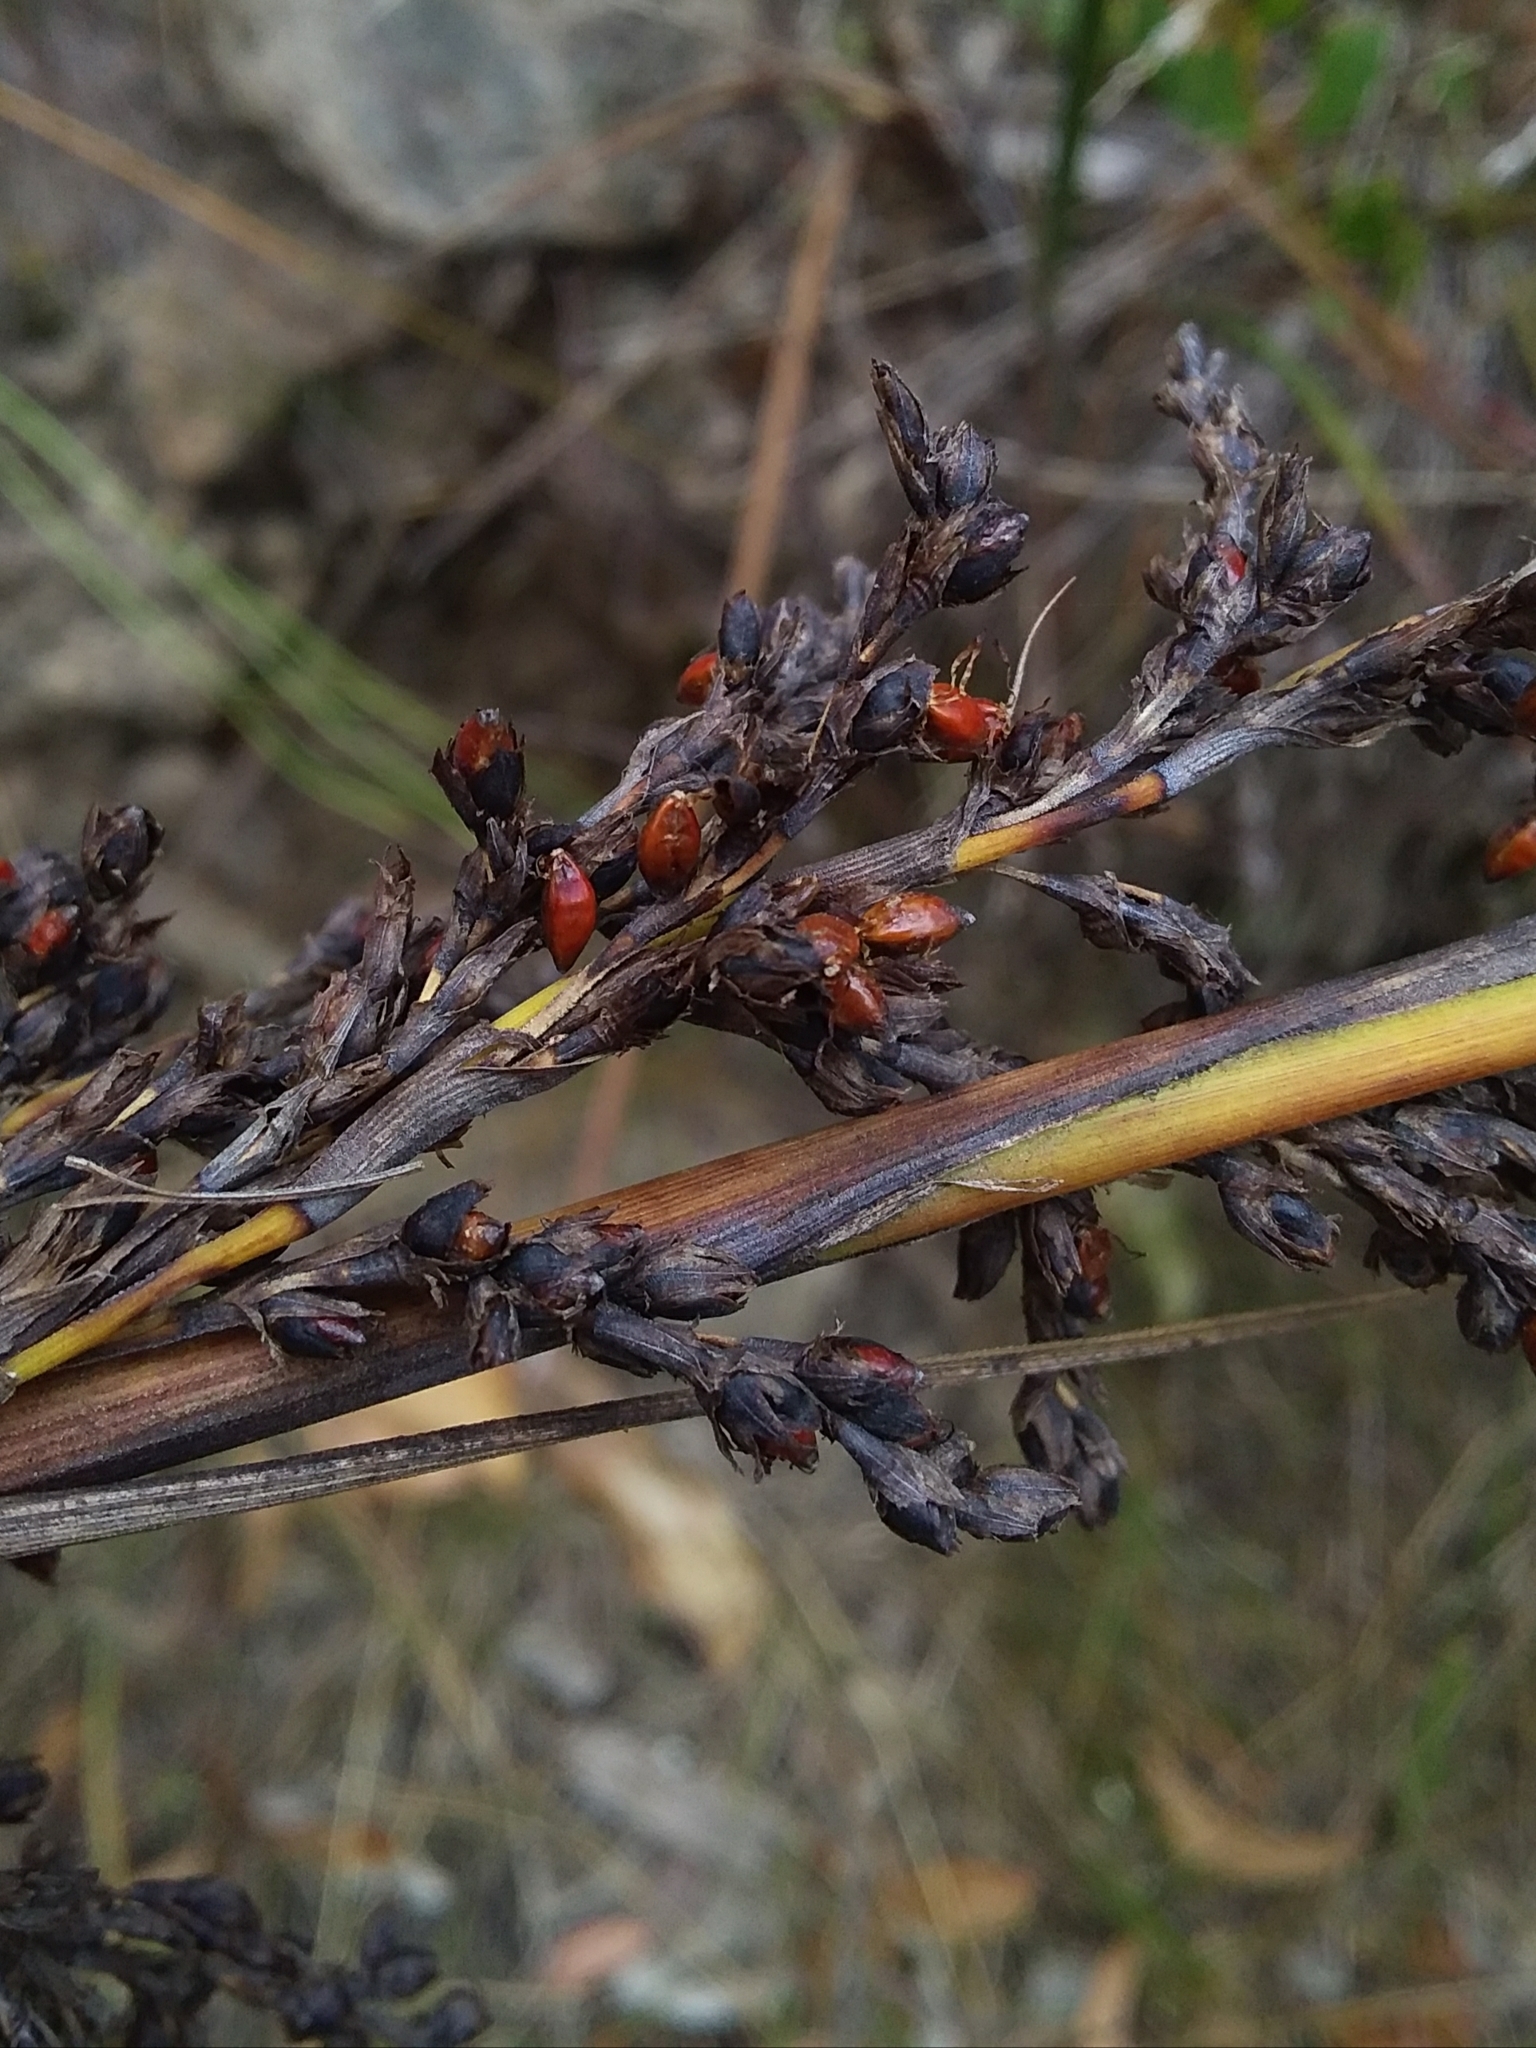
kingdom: Plantae
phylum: Tracheophyta
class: Liliopsida
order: Poales
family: Cyperaceae
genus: Gahnia
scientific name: Gahnia sieberiana
